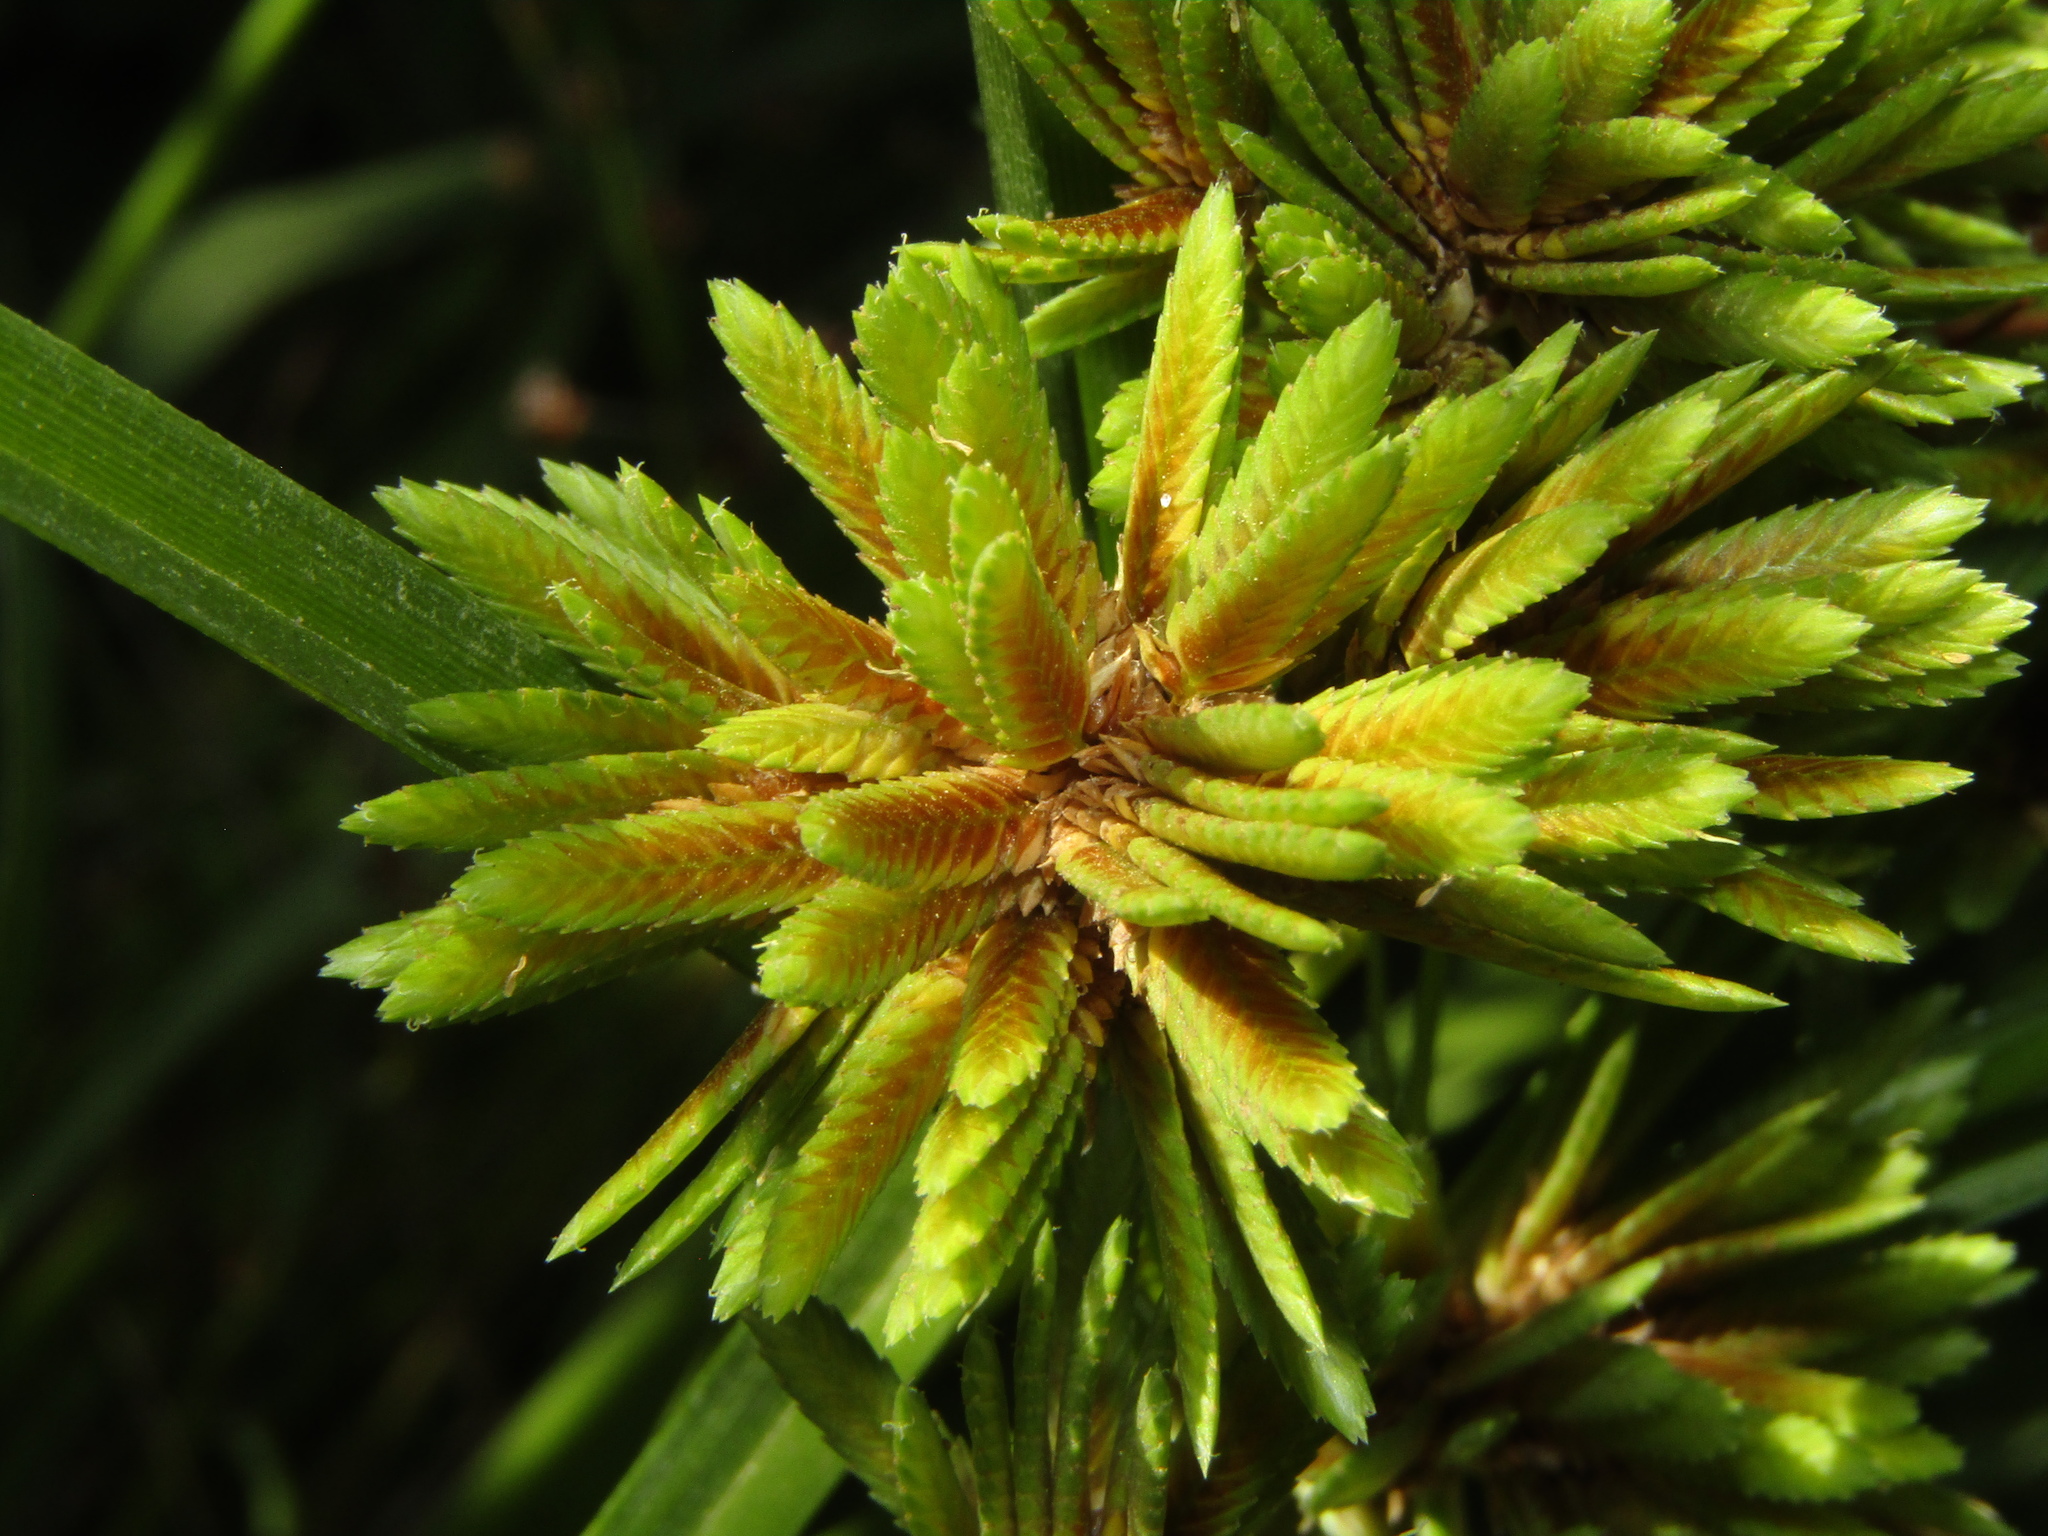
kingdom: Plantae
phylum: Tracheophyta
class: Liliopsida
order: Poales
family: Cyperaceae
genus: Cyperus
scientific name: Cyperus eragrostis
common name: Tall flatsedge
